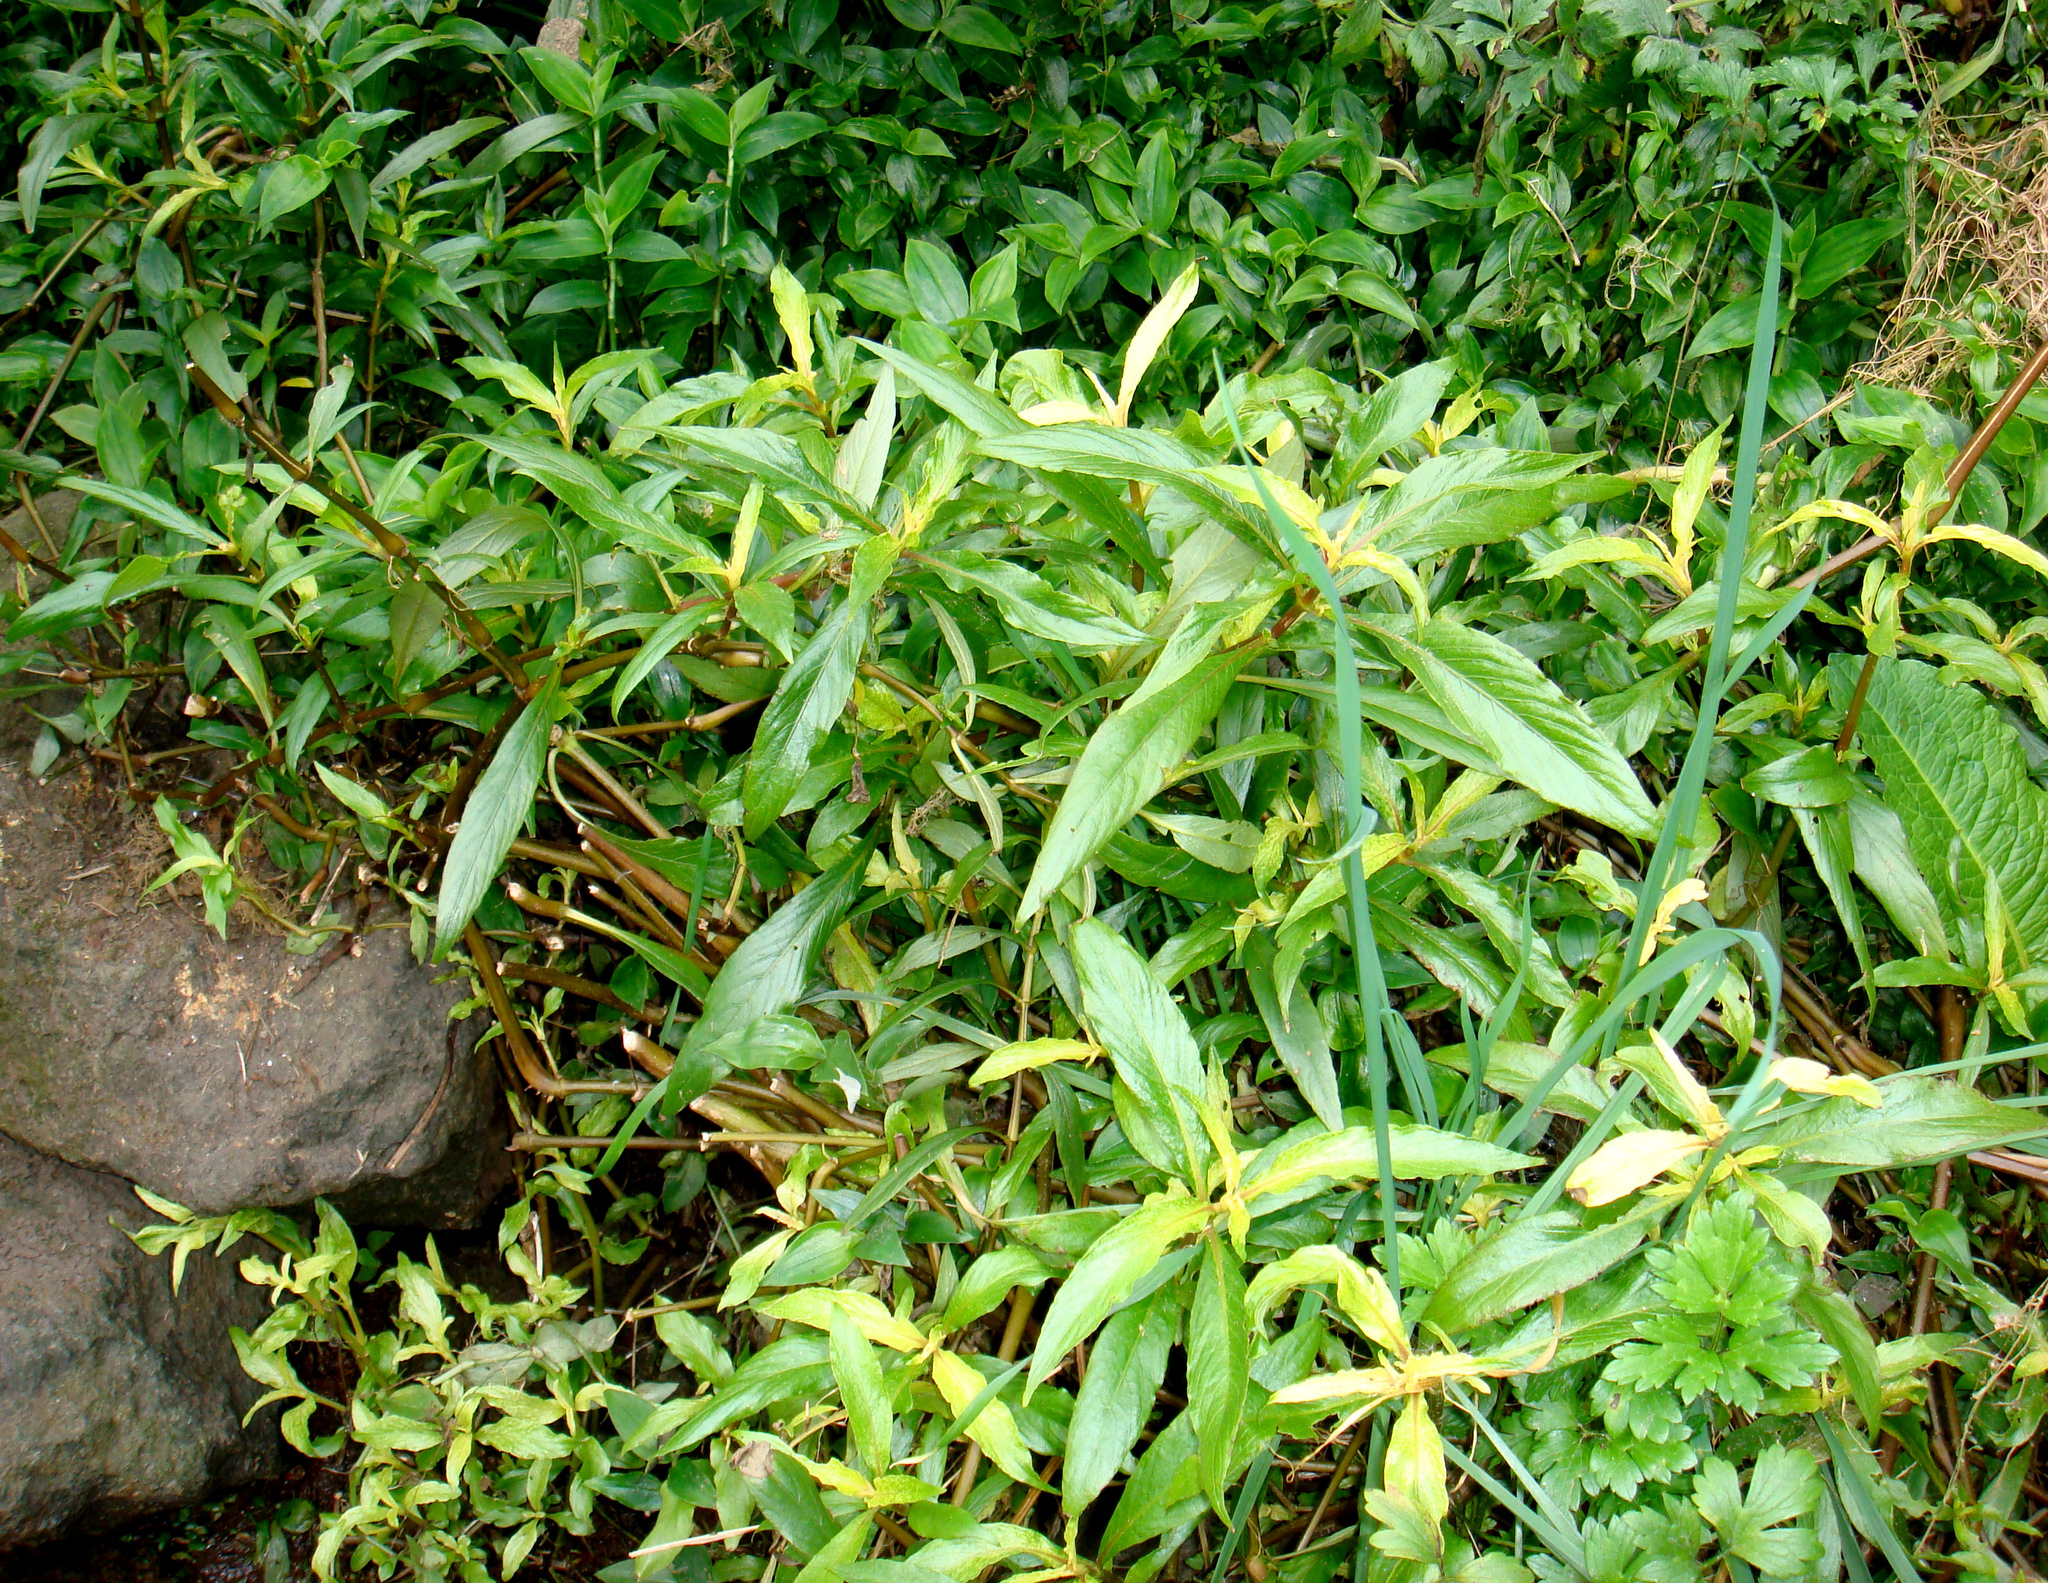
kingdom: Plantae
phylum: Tracheophyta
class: Magnoliopsida
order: Lamiales
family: Acanthaceae
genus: Hygrophila
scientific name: Hygrophila ringens
